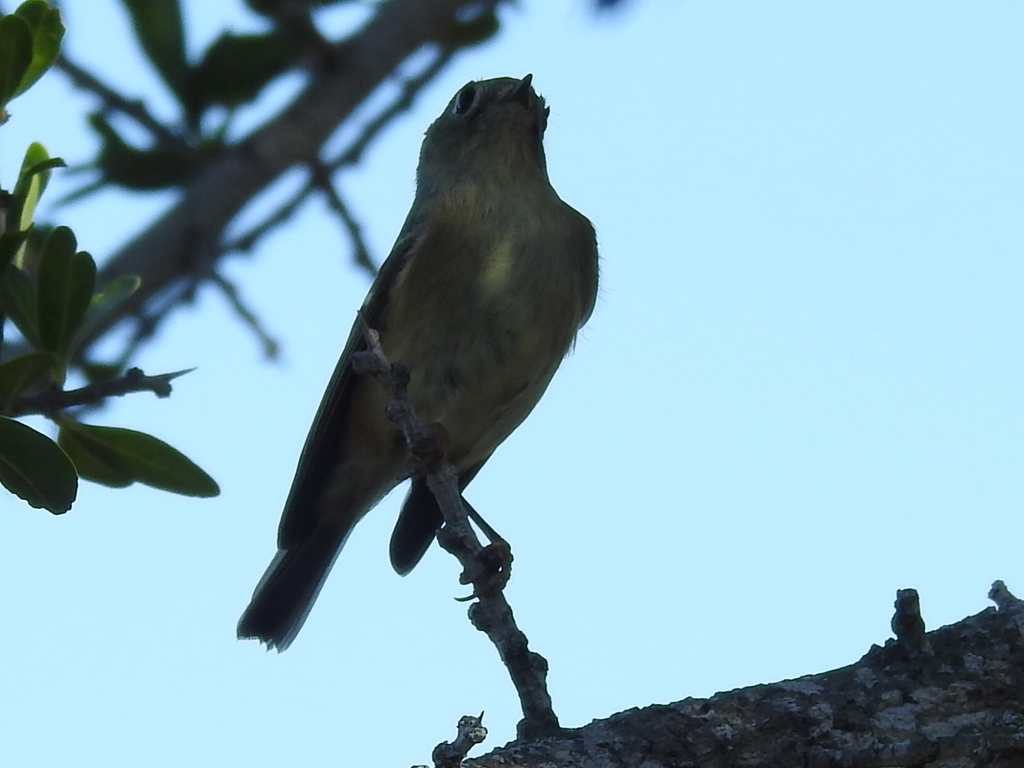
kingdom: Animalia
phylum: Chordata
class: Aves
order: Passeriformes
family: Regulidae
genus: Regulus
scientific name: Regulus calendula
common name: Ruby-crowned kinglet
